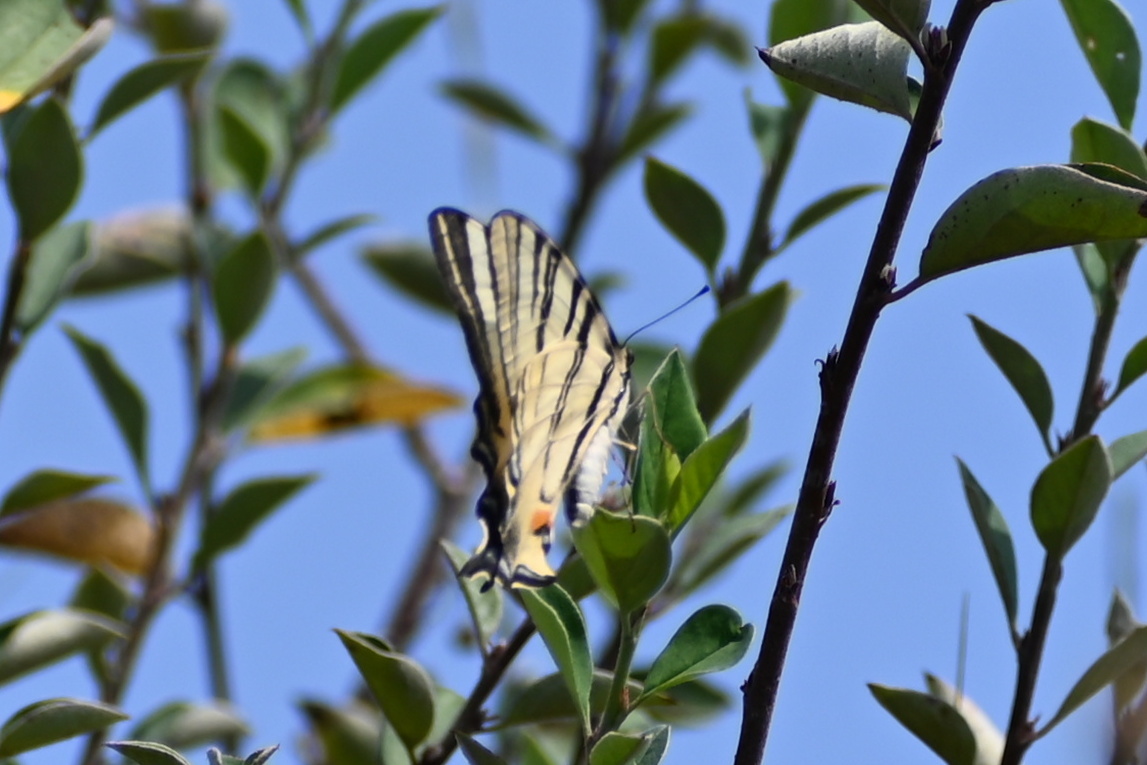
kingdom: Animalia
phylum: Arthropoda
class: Insecta
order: Lepidoptera
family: Papilionidae
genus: Iphiclides
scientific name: Iphiclides podalirius
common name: Scarce swallowtail
